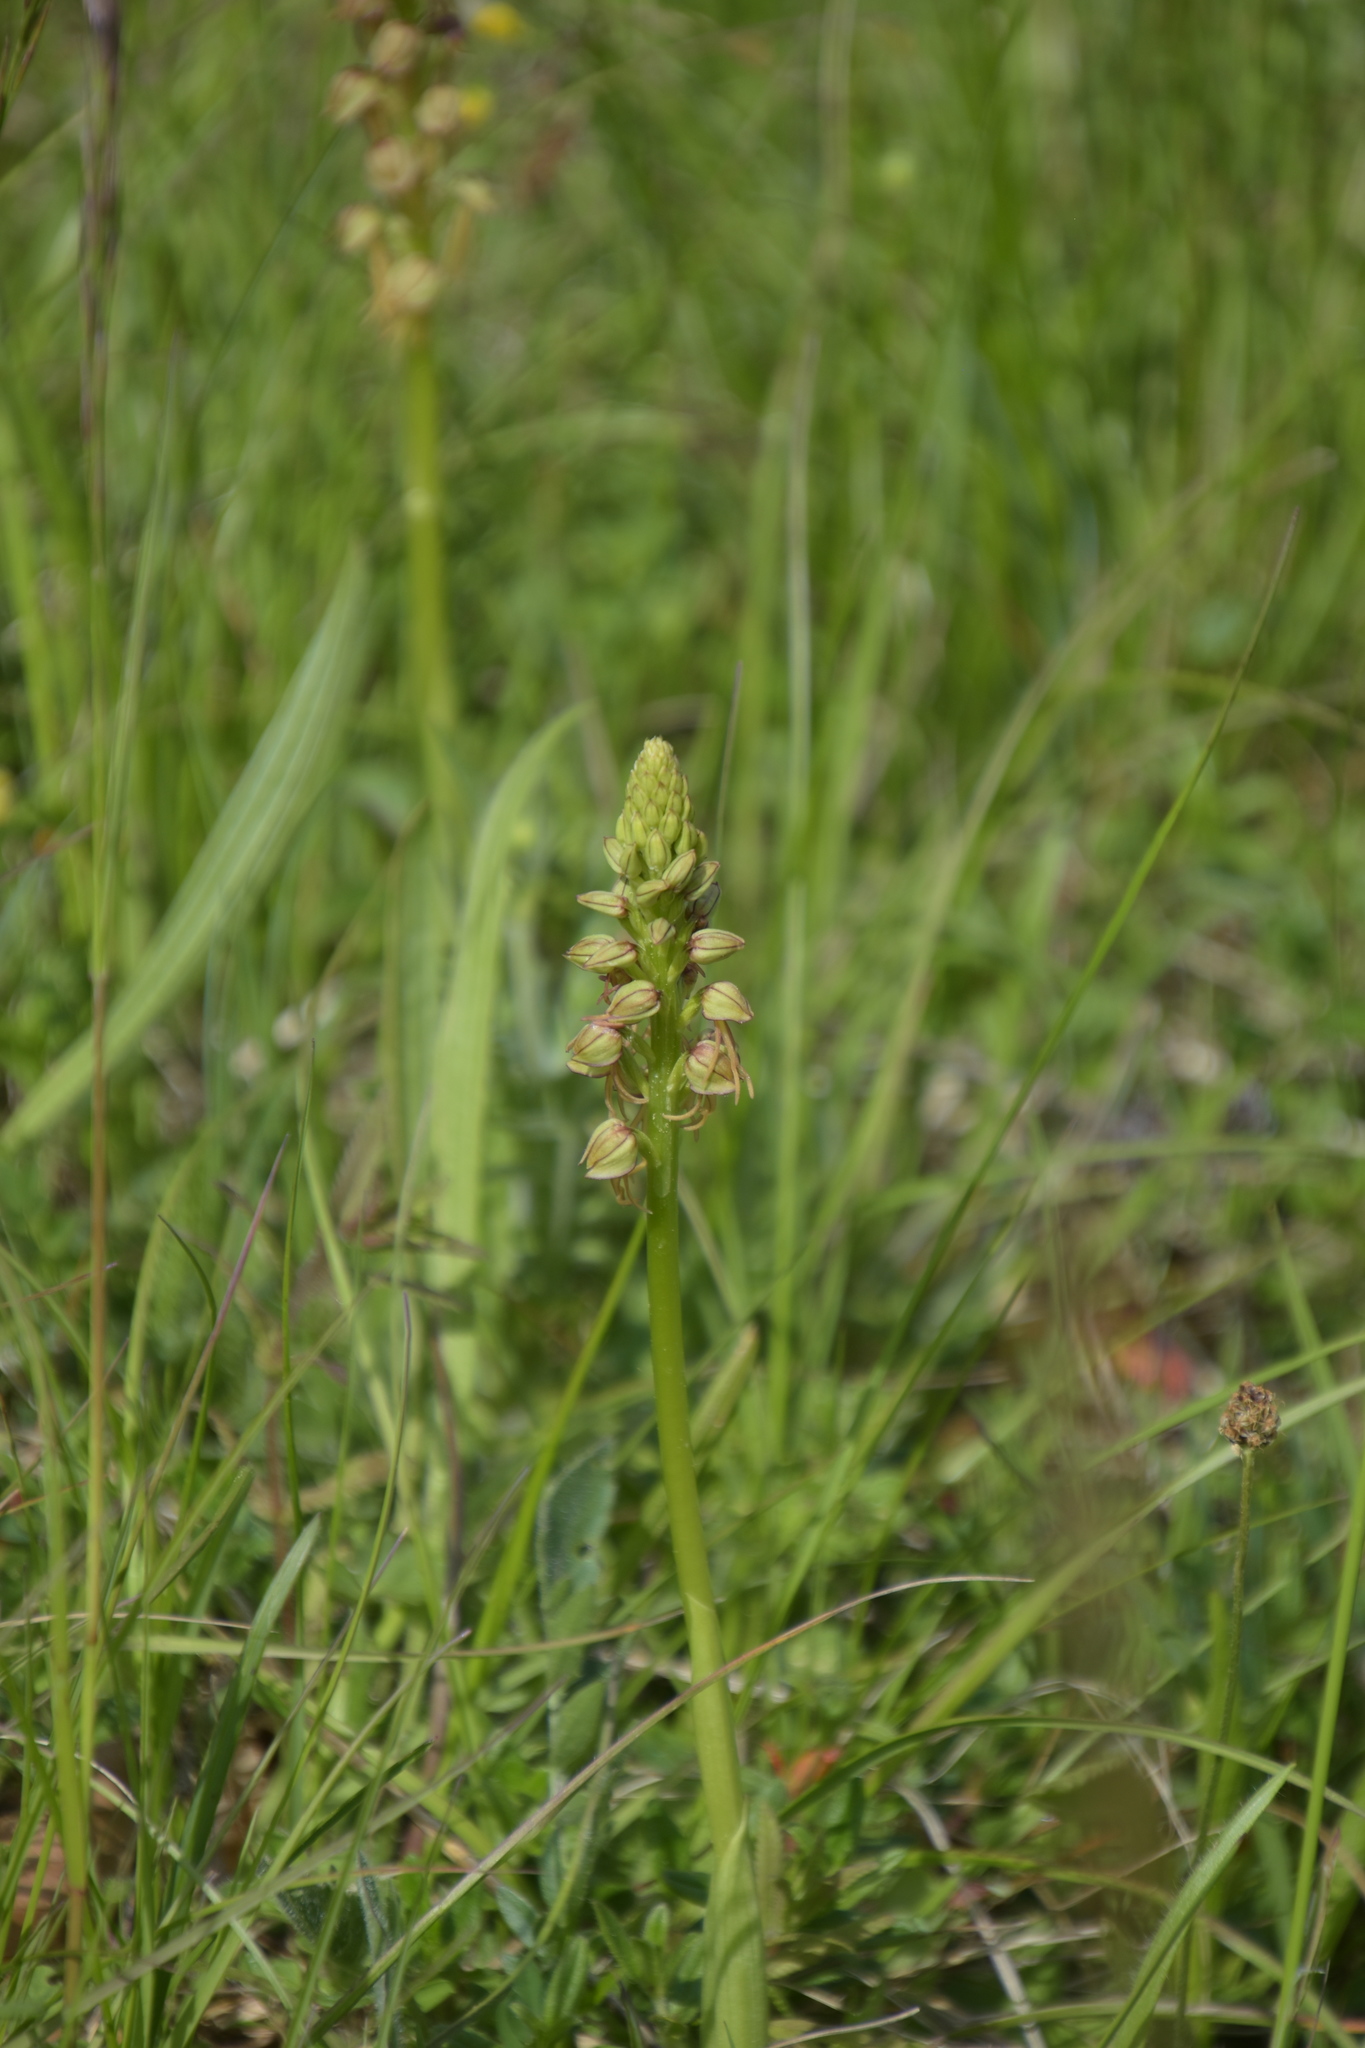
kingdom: Plantae
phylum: Tracheophyta
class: Liliopsida
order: Asparagales
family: Orchidaceae
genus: Orchis
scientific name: Orchis anthropophora
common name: Man orchid
